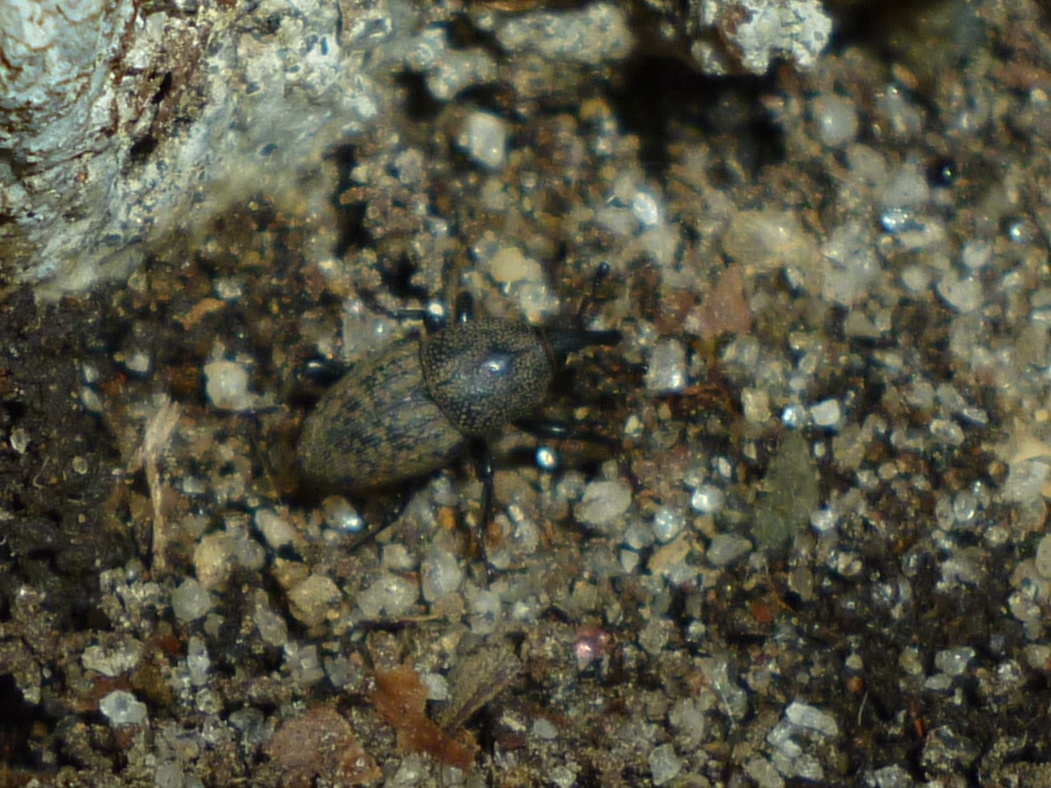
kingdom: Animalia
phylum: Arthropoda
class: Insecta
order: Coleoptera
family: Dryophthoridae
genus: Sphenophorus
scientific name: Sphenophorus inaequalis
